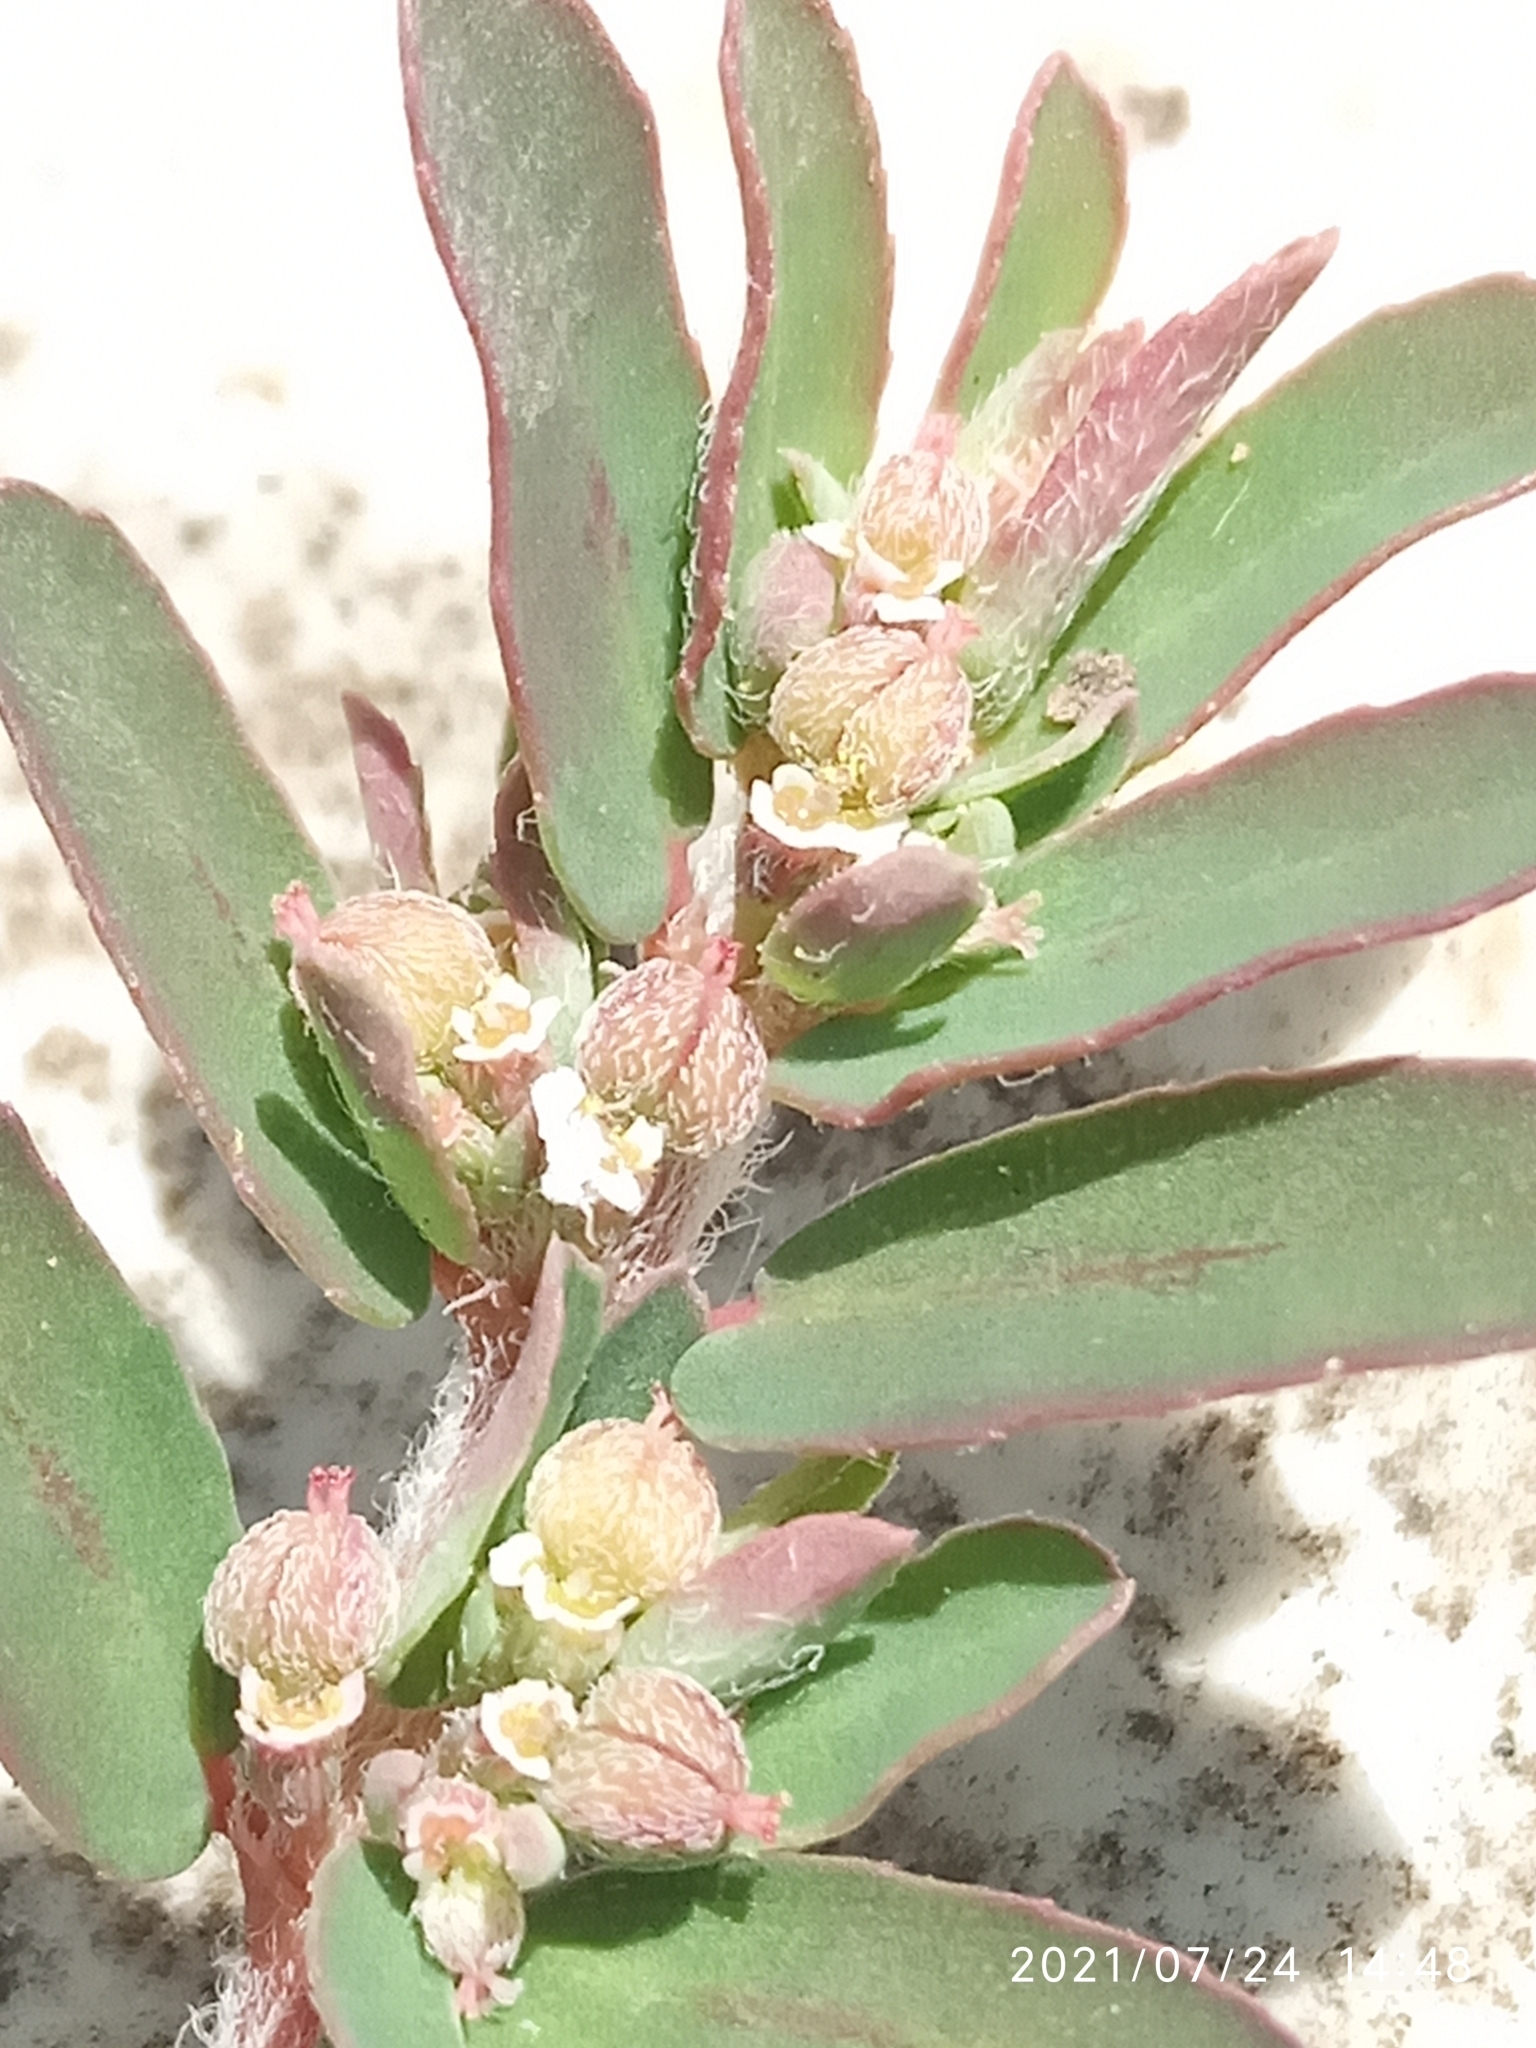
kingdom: Plantae
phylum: Tracheophyta
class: Magnoliopsida
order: Malpighiales
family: Euphorbiaceae
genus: Euphorbia
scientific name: Euphorbia maculata
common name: Spotted spurge
